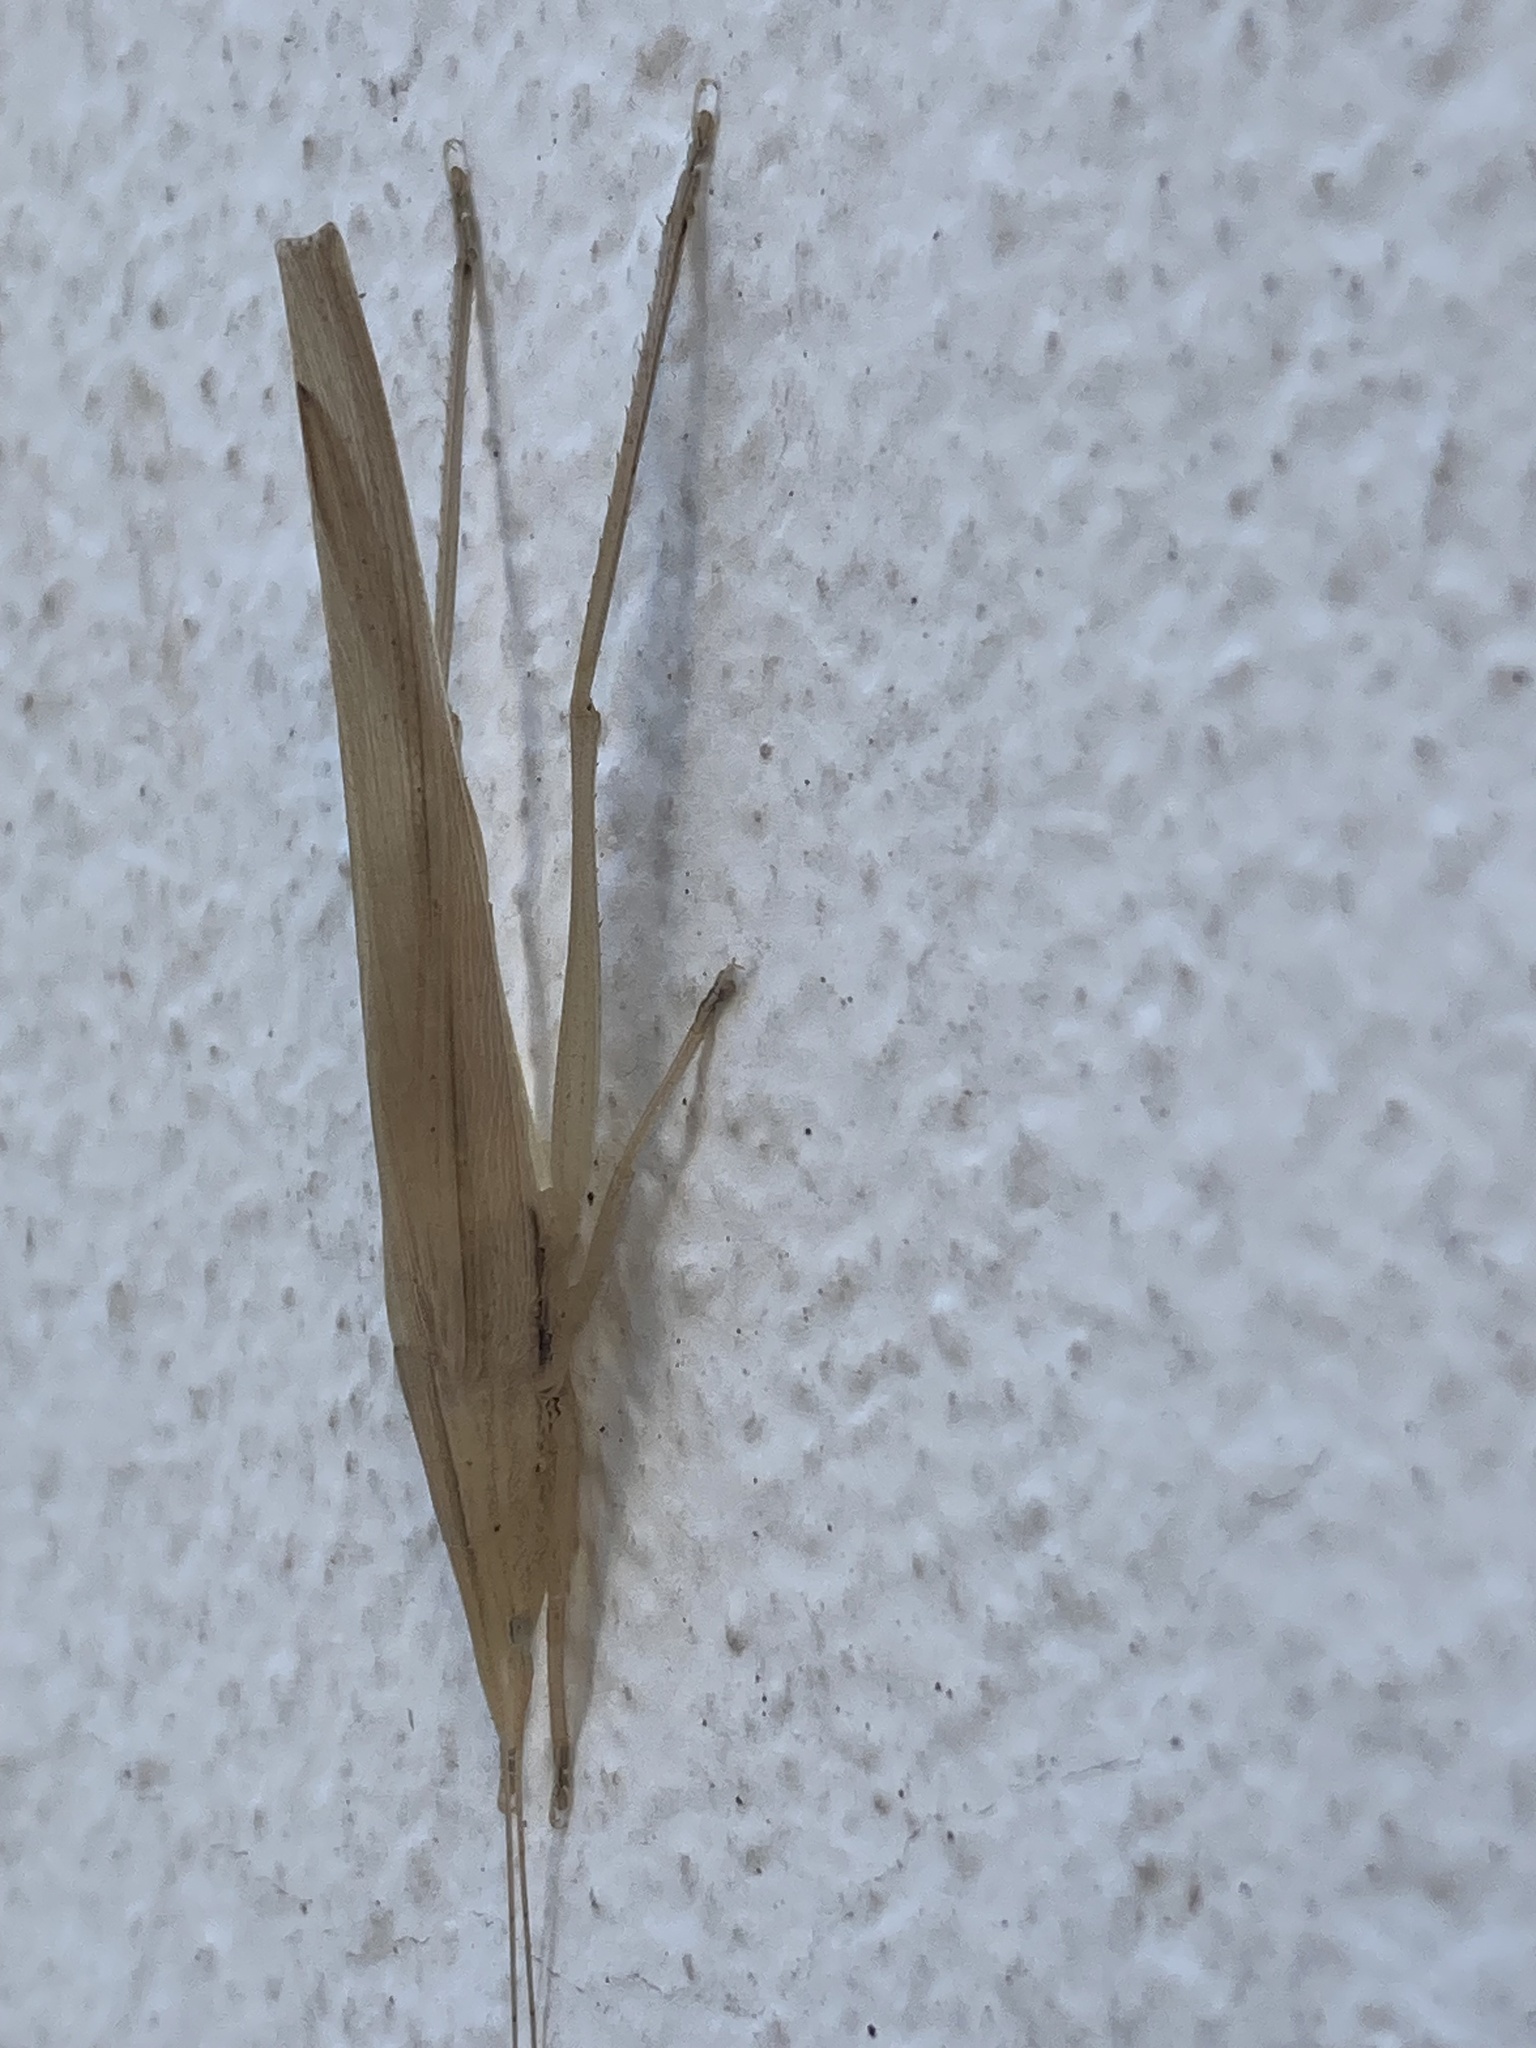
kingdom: Animalia
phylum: Arthropoda
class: Insecta
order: Orthoptera
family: Tettigoniidae
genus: Eucaulopsis
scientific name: Eucaulopsis truncata
